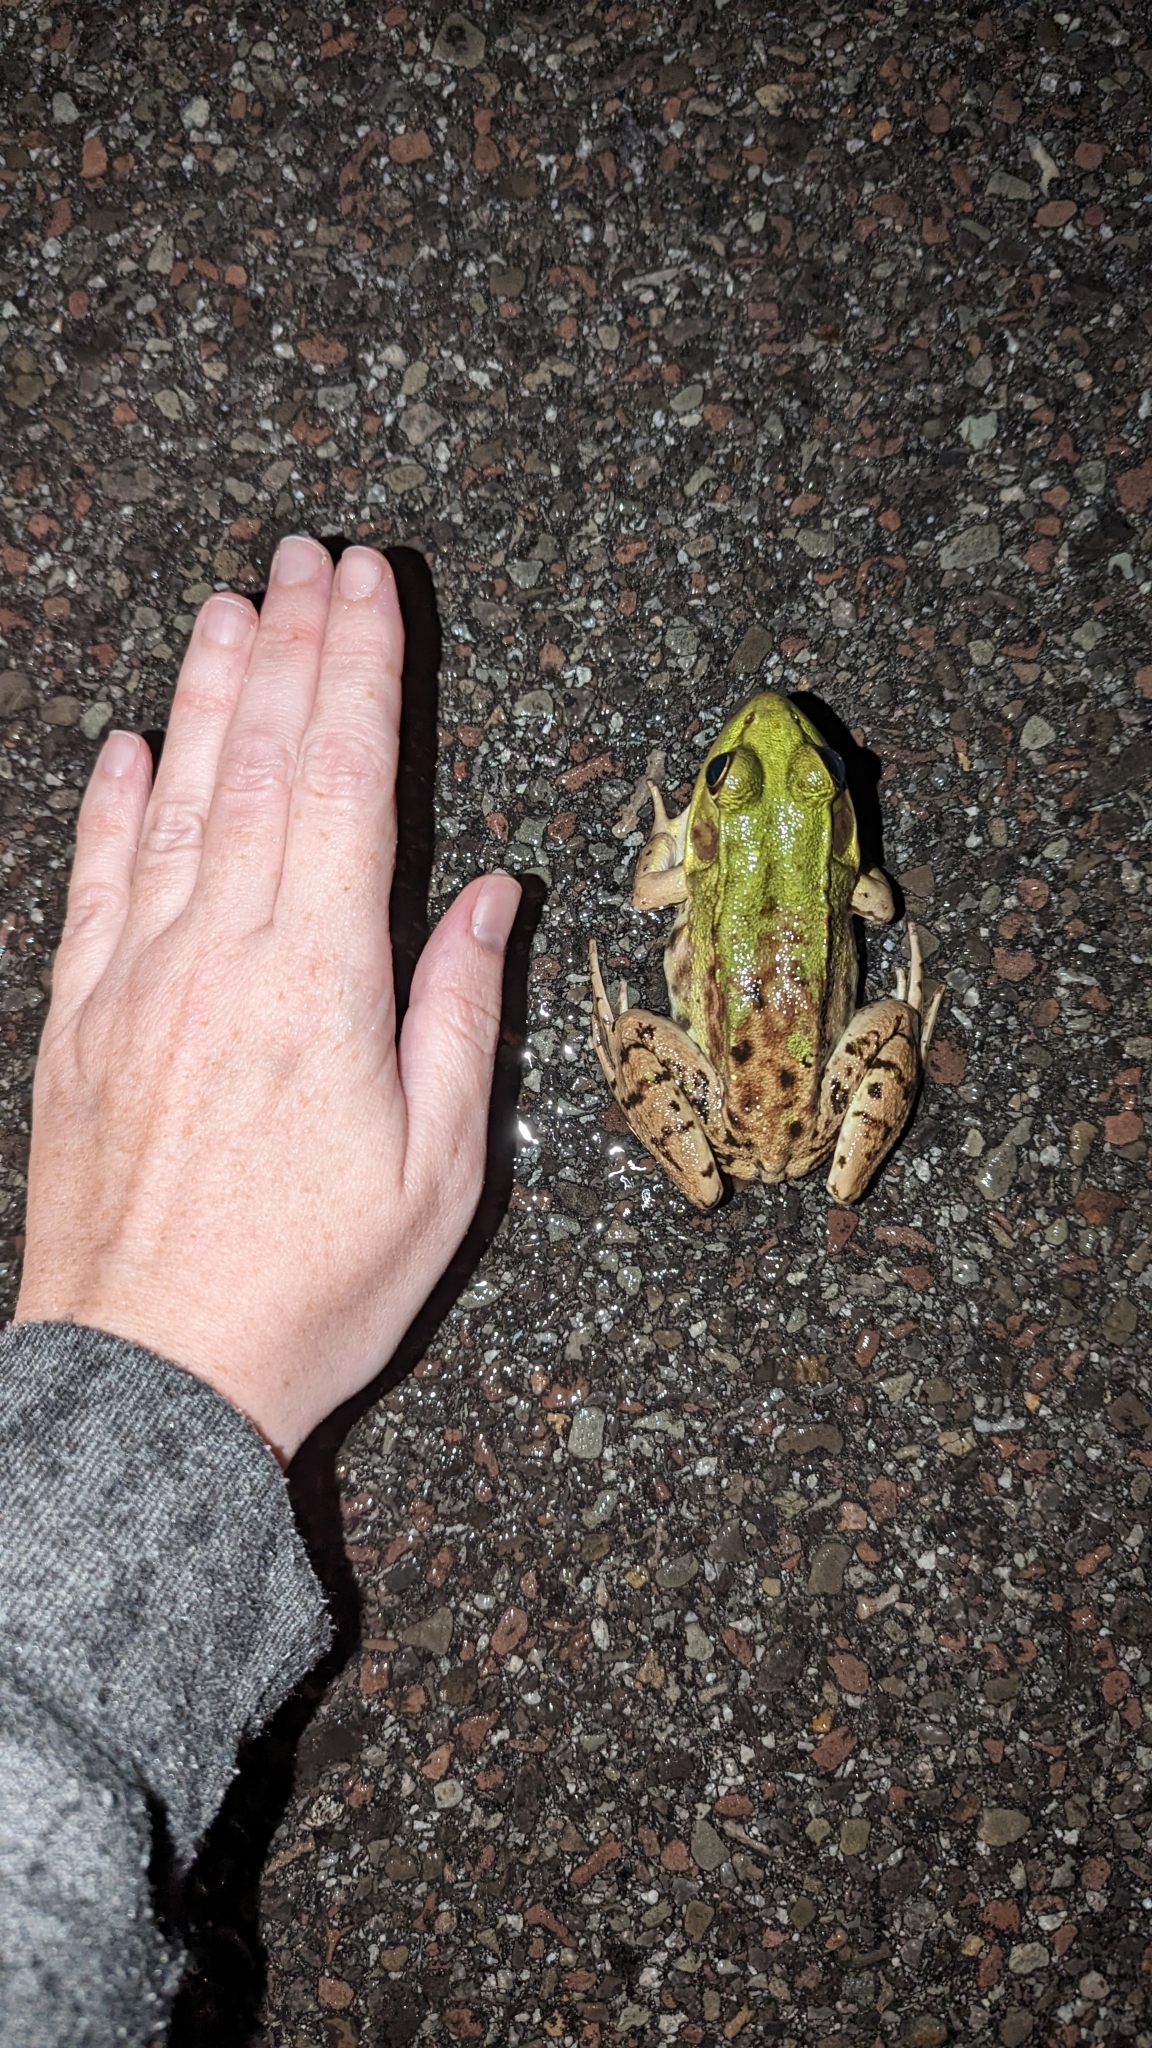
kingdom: Animalia
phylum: Chordata
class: Amphibia
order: Anura
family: Ranidae
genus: Lithobates
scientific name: Lithobates clamitans
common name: Green frog
